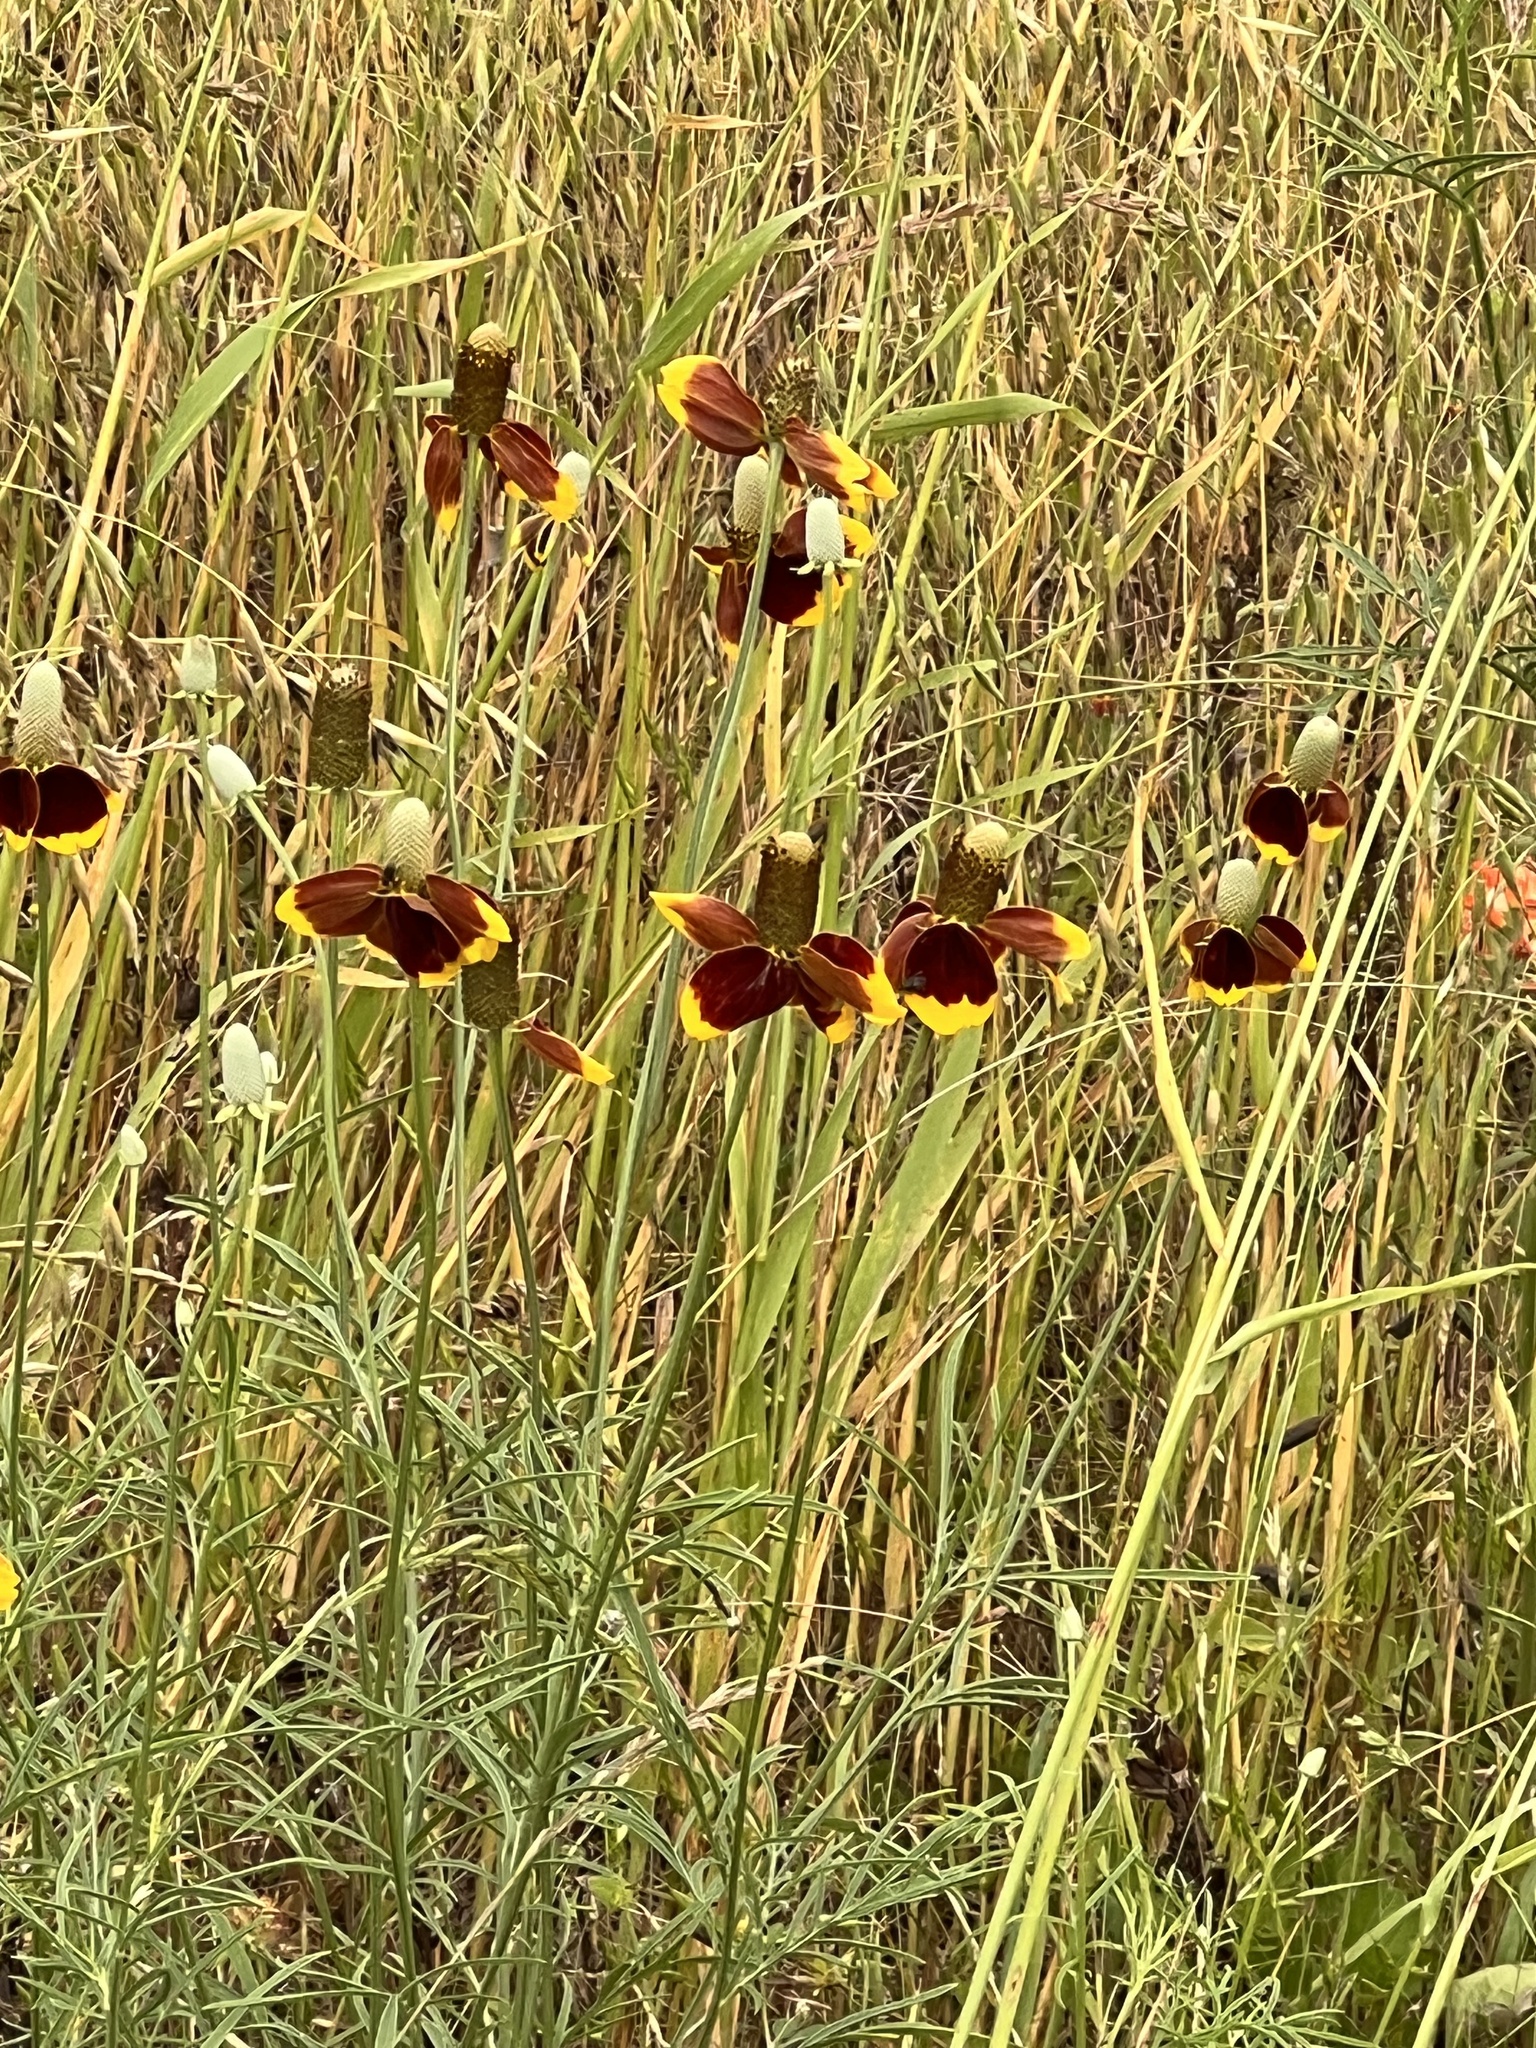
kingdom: Plantae
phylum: Tracheophyta
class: Magnoliopsida
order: Asterales
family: Asteraceae
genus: Ratibida
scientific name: Ratibida columnifera
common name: Prairie coneflower
